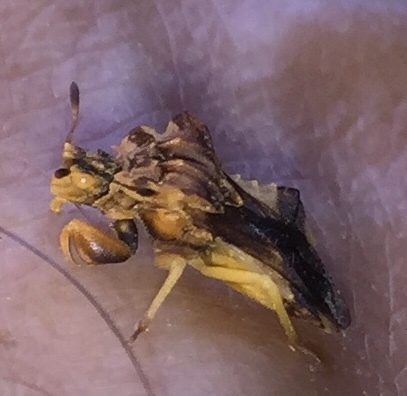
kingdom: Animalia
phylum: Arthropoda
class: Insecta
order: Hemiptera
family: Reduviidae
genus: Phymata
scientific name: Phymata fasciata
